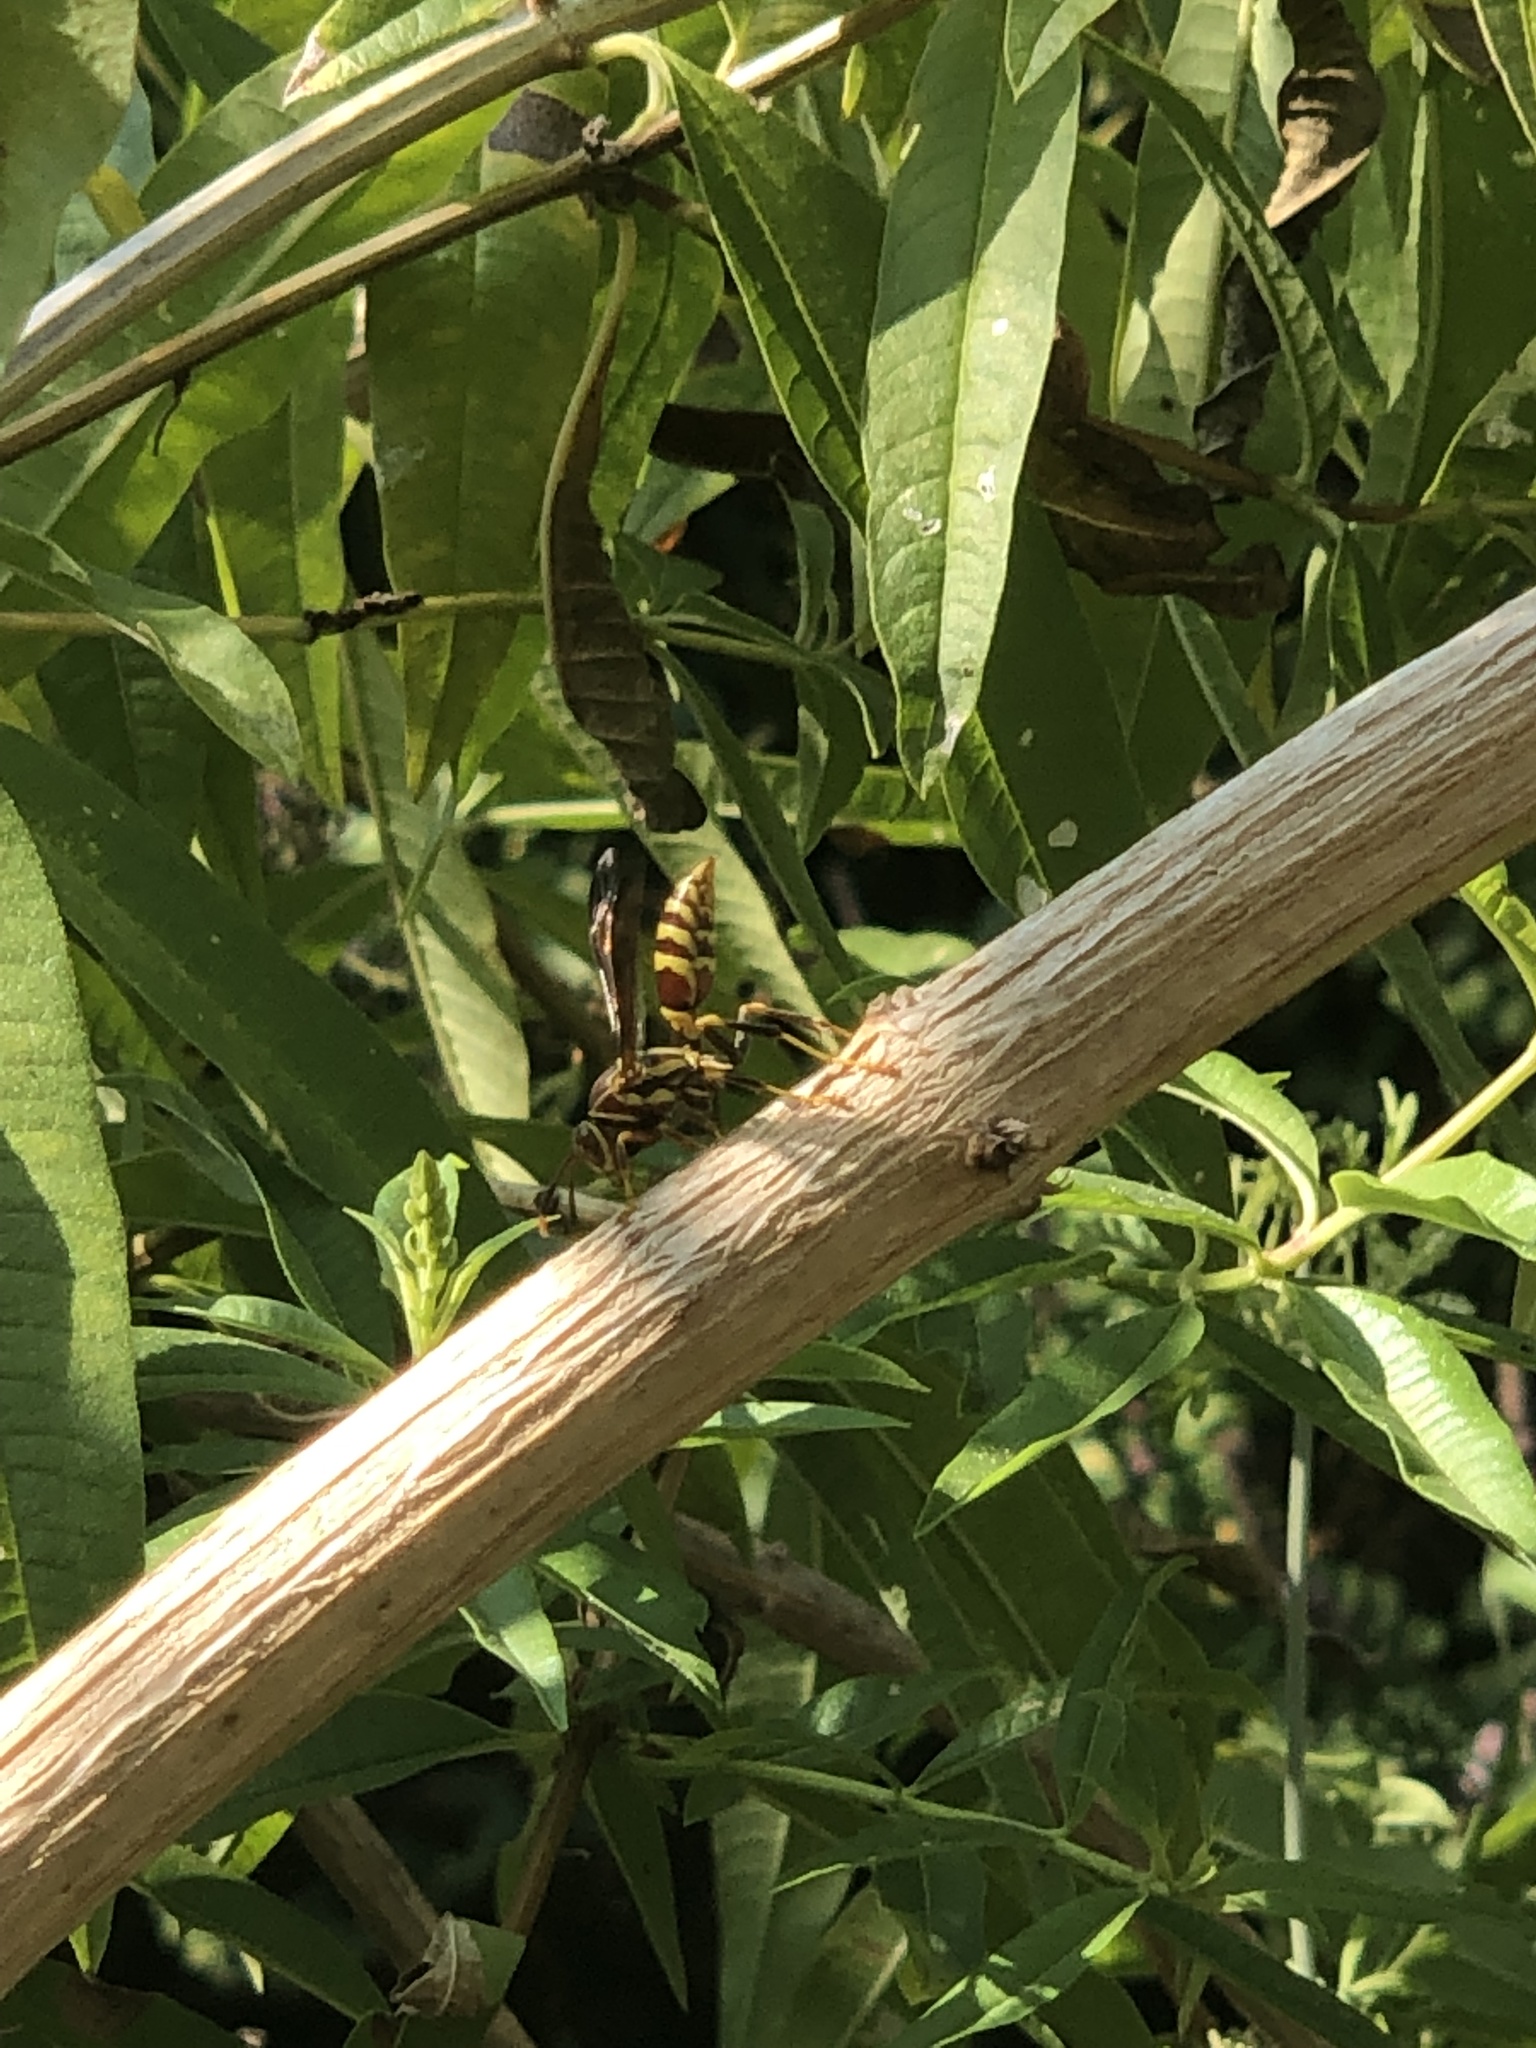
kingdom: Animalia
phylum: Arthropoda
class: Insecta
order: Hymenoptera
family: Eumenidae
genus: Polistes
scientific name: Polistes exclamans
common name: Paper wasp
